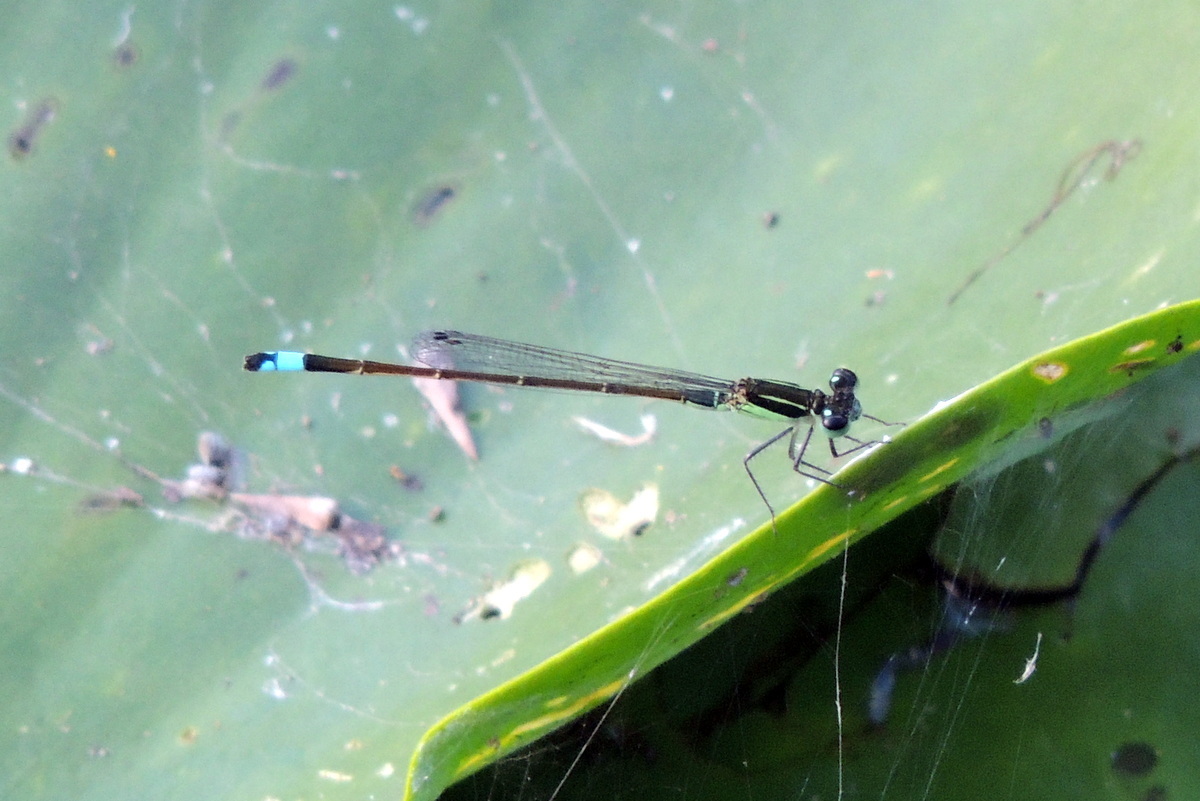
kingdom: Animalia
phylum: Arthropoda
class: Insecta
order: Odonata
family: Coenagrionidae
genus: Ischnura
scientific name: Ischnura ramburii
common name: Rambur's forktail
